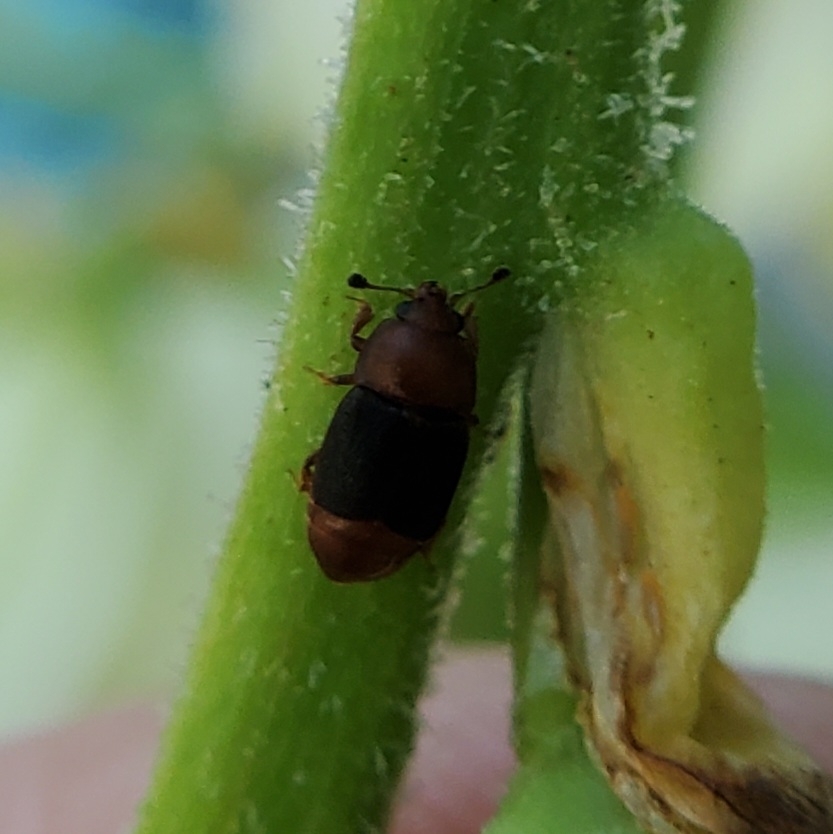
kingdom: Animalia
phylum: Arthropoda
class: Insecta
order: Coleoptera
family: Nitidulidae
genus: Carpophilus
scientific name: Carpophilus
